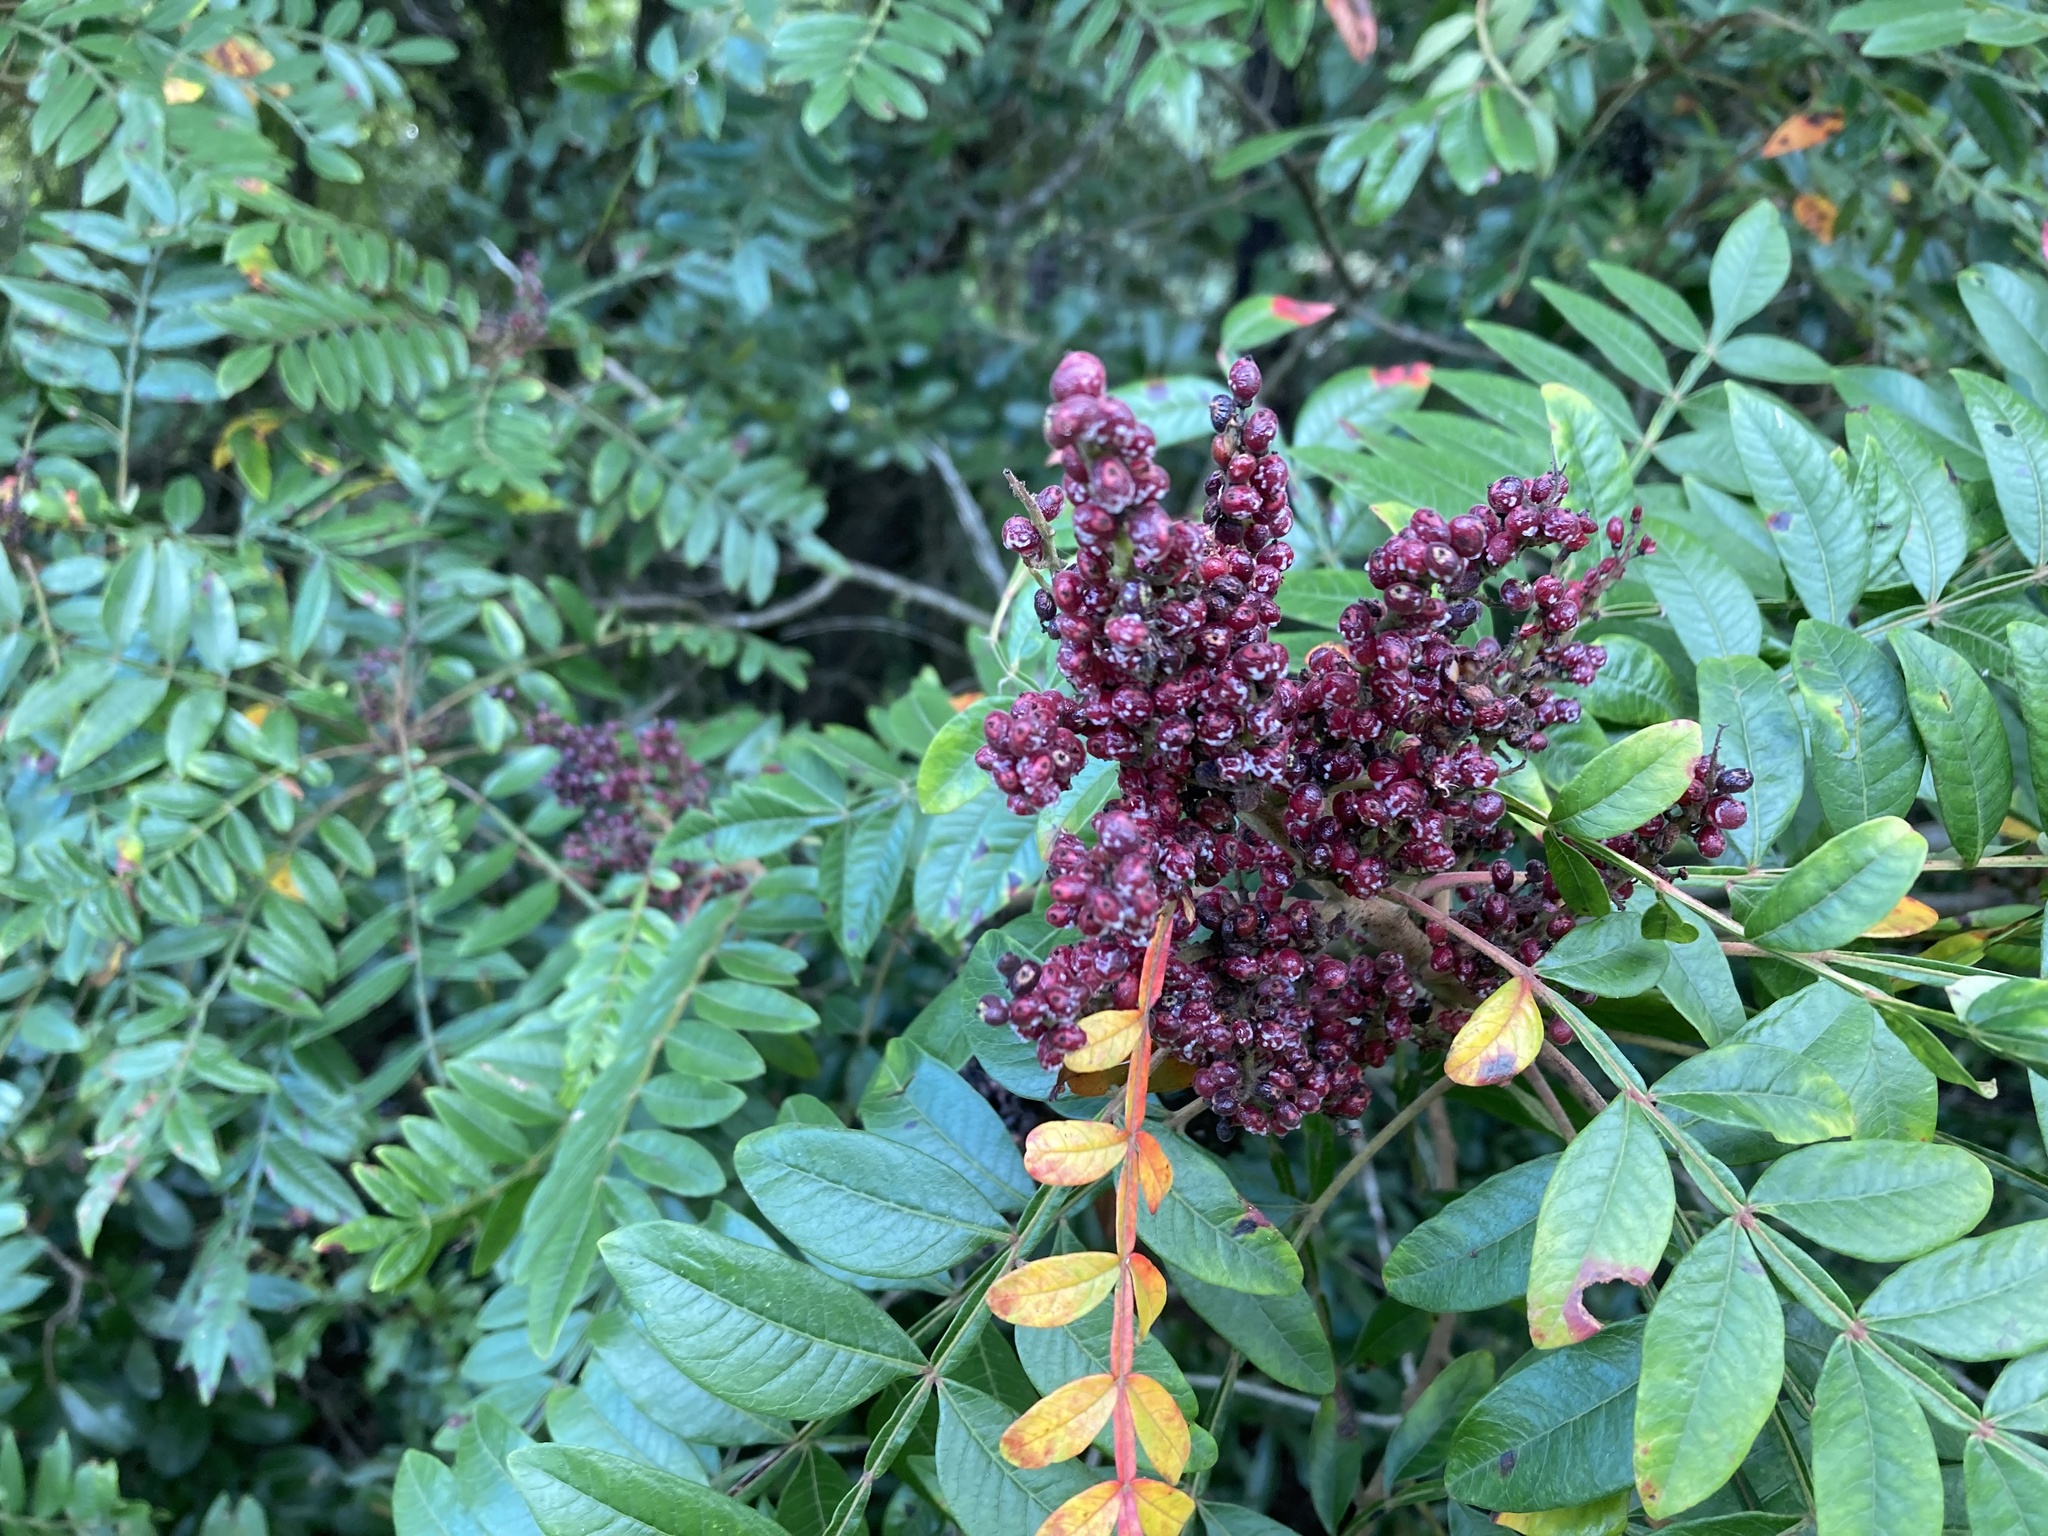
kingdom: Plantae
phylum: Tracheophyta
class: Magnoliopsida
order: Sapindales
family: Anacardiaceae
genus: Rhus
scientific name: Rhus copallina
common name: Shining sumac
